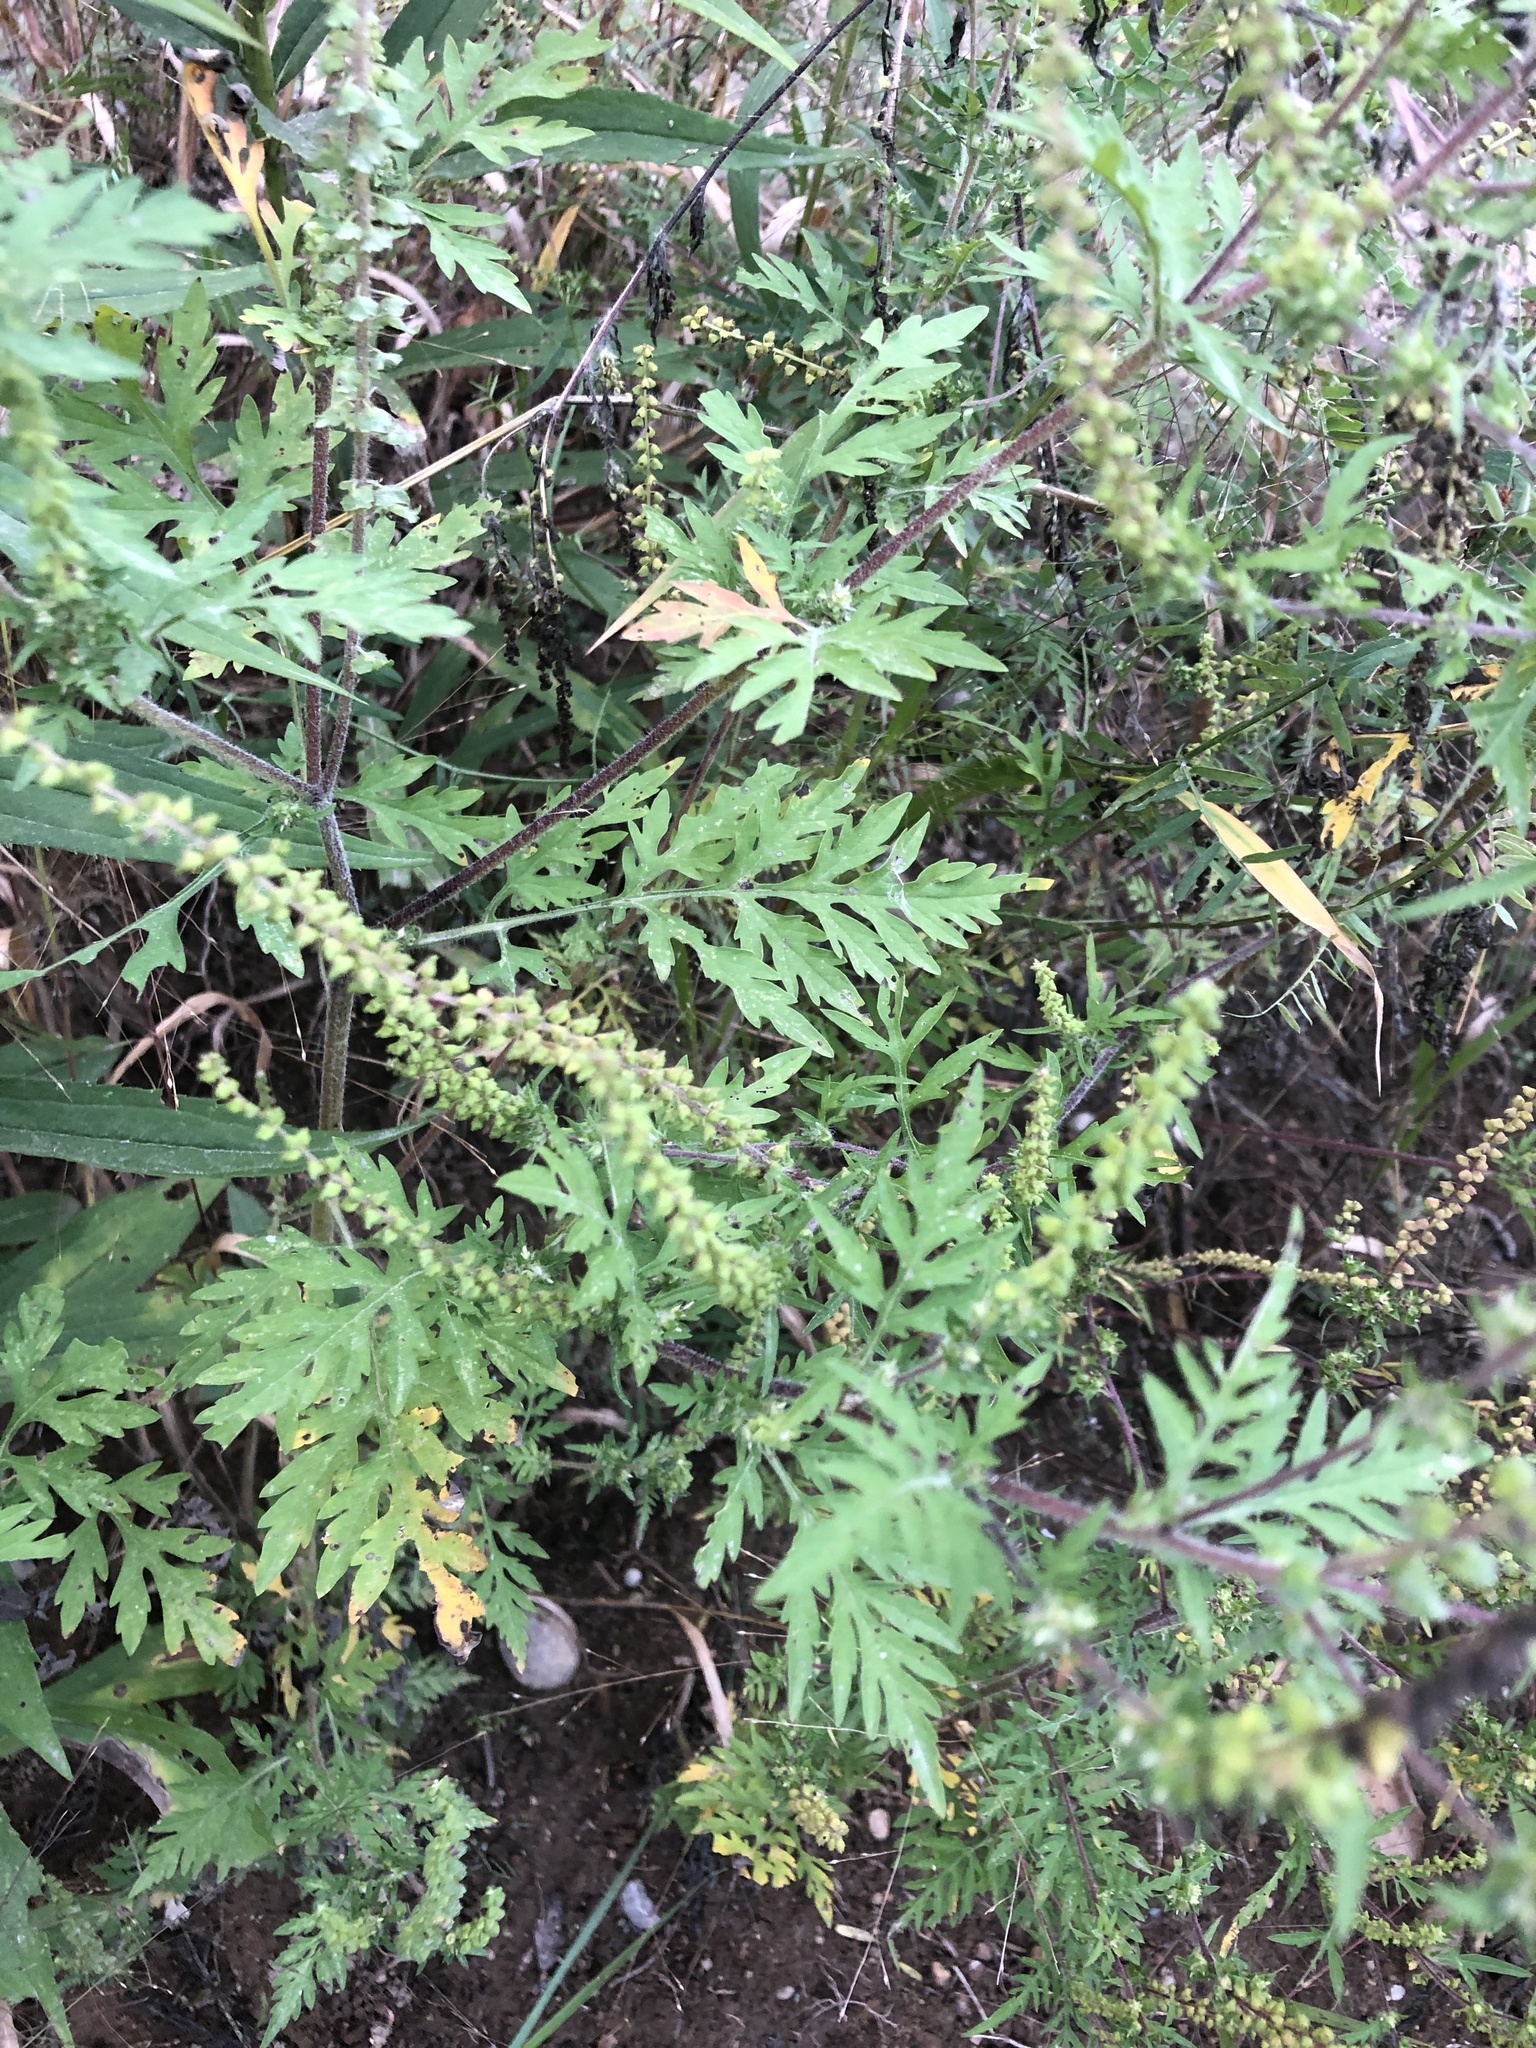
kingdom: Plantae
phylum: Tracheophyta
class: Magnoliopsida
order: Asterales
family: Asteraceae
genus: Ambrosia
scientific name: Ambrosia artemisiifolia
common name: Annual ragweed
